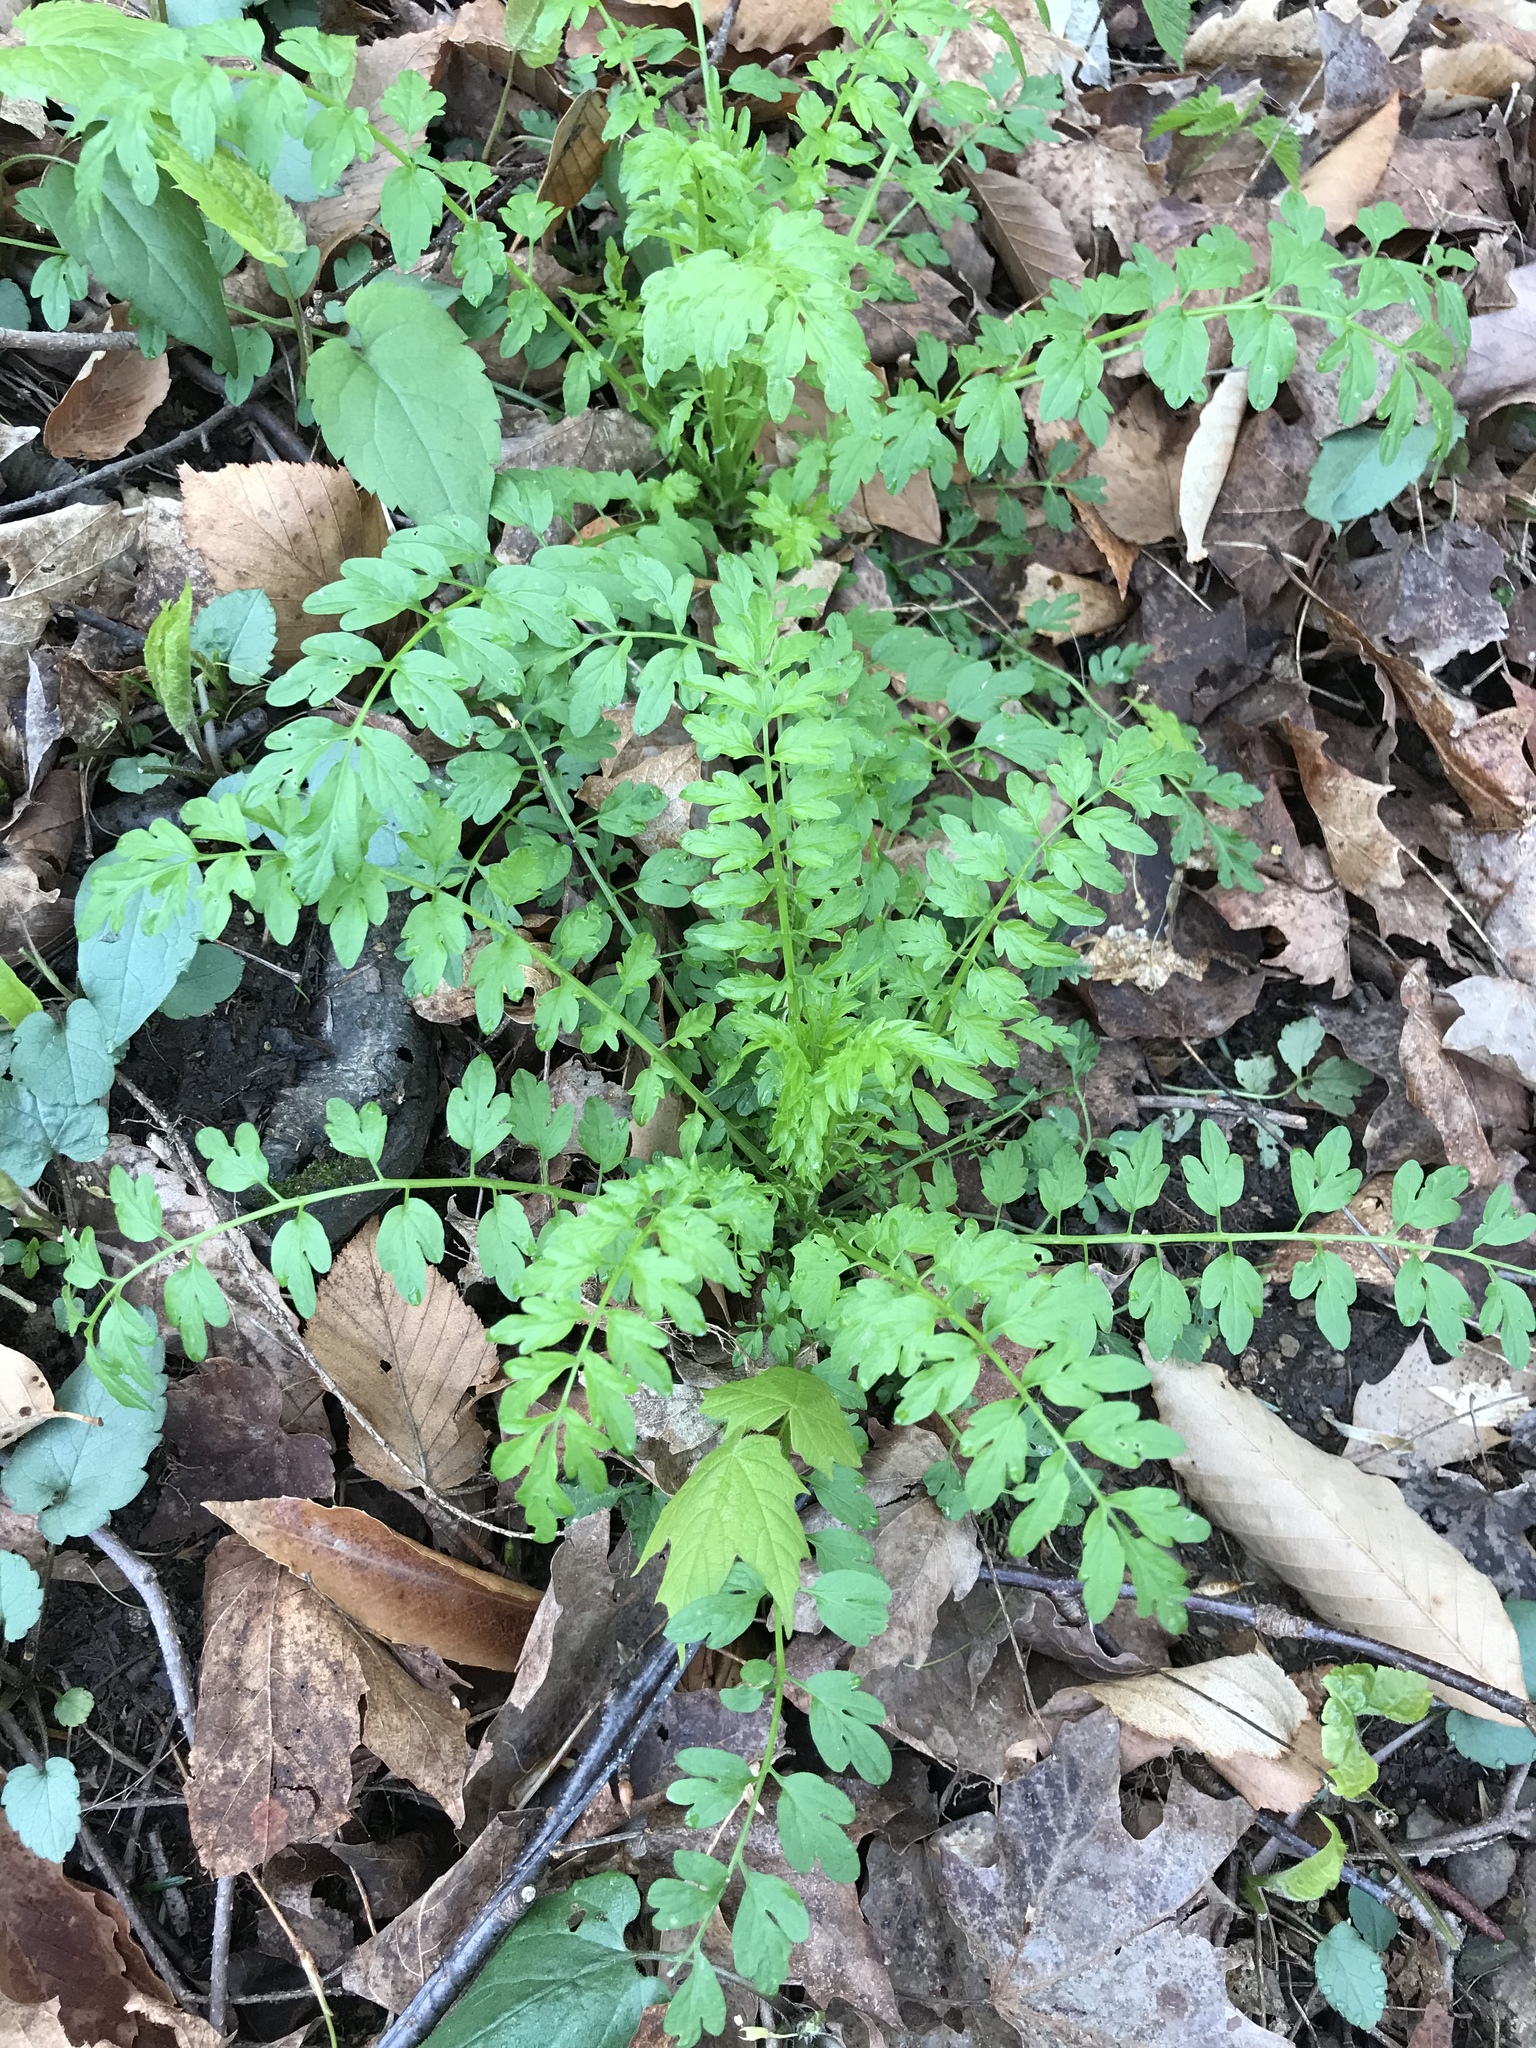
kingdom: Plantae
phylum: Tracheophyta
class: Magnoliopsida
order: Brassicales
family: Brassicaceae
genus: Cardamine
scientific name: Cardamine impatiens
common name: Narrow-leaved bitter-cress
